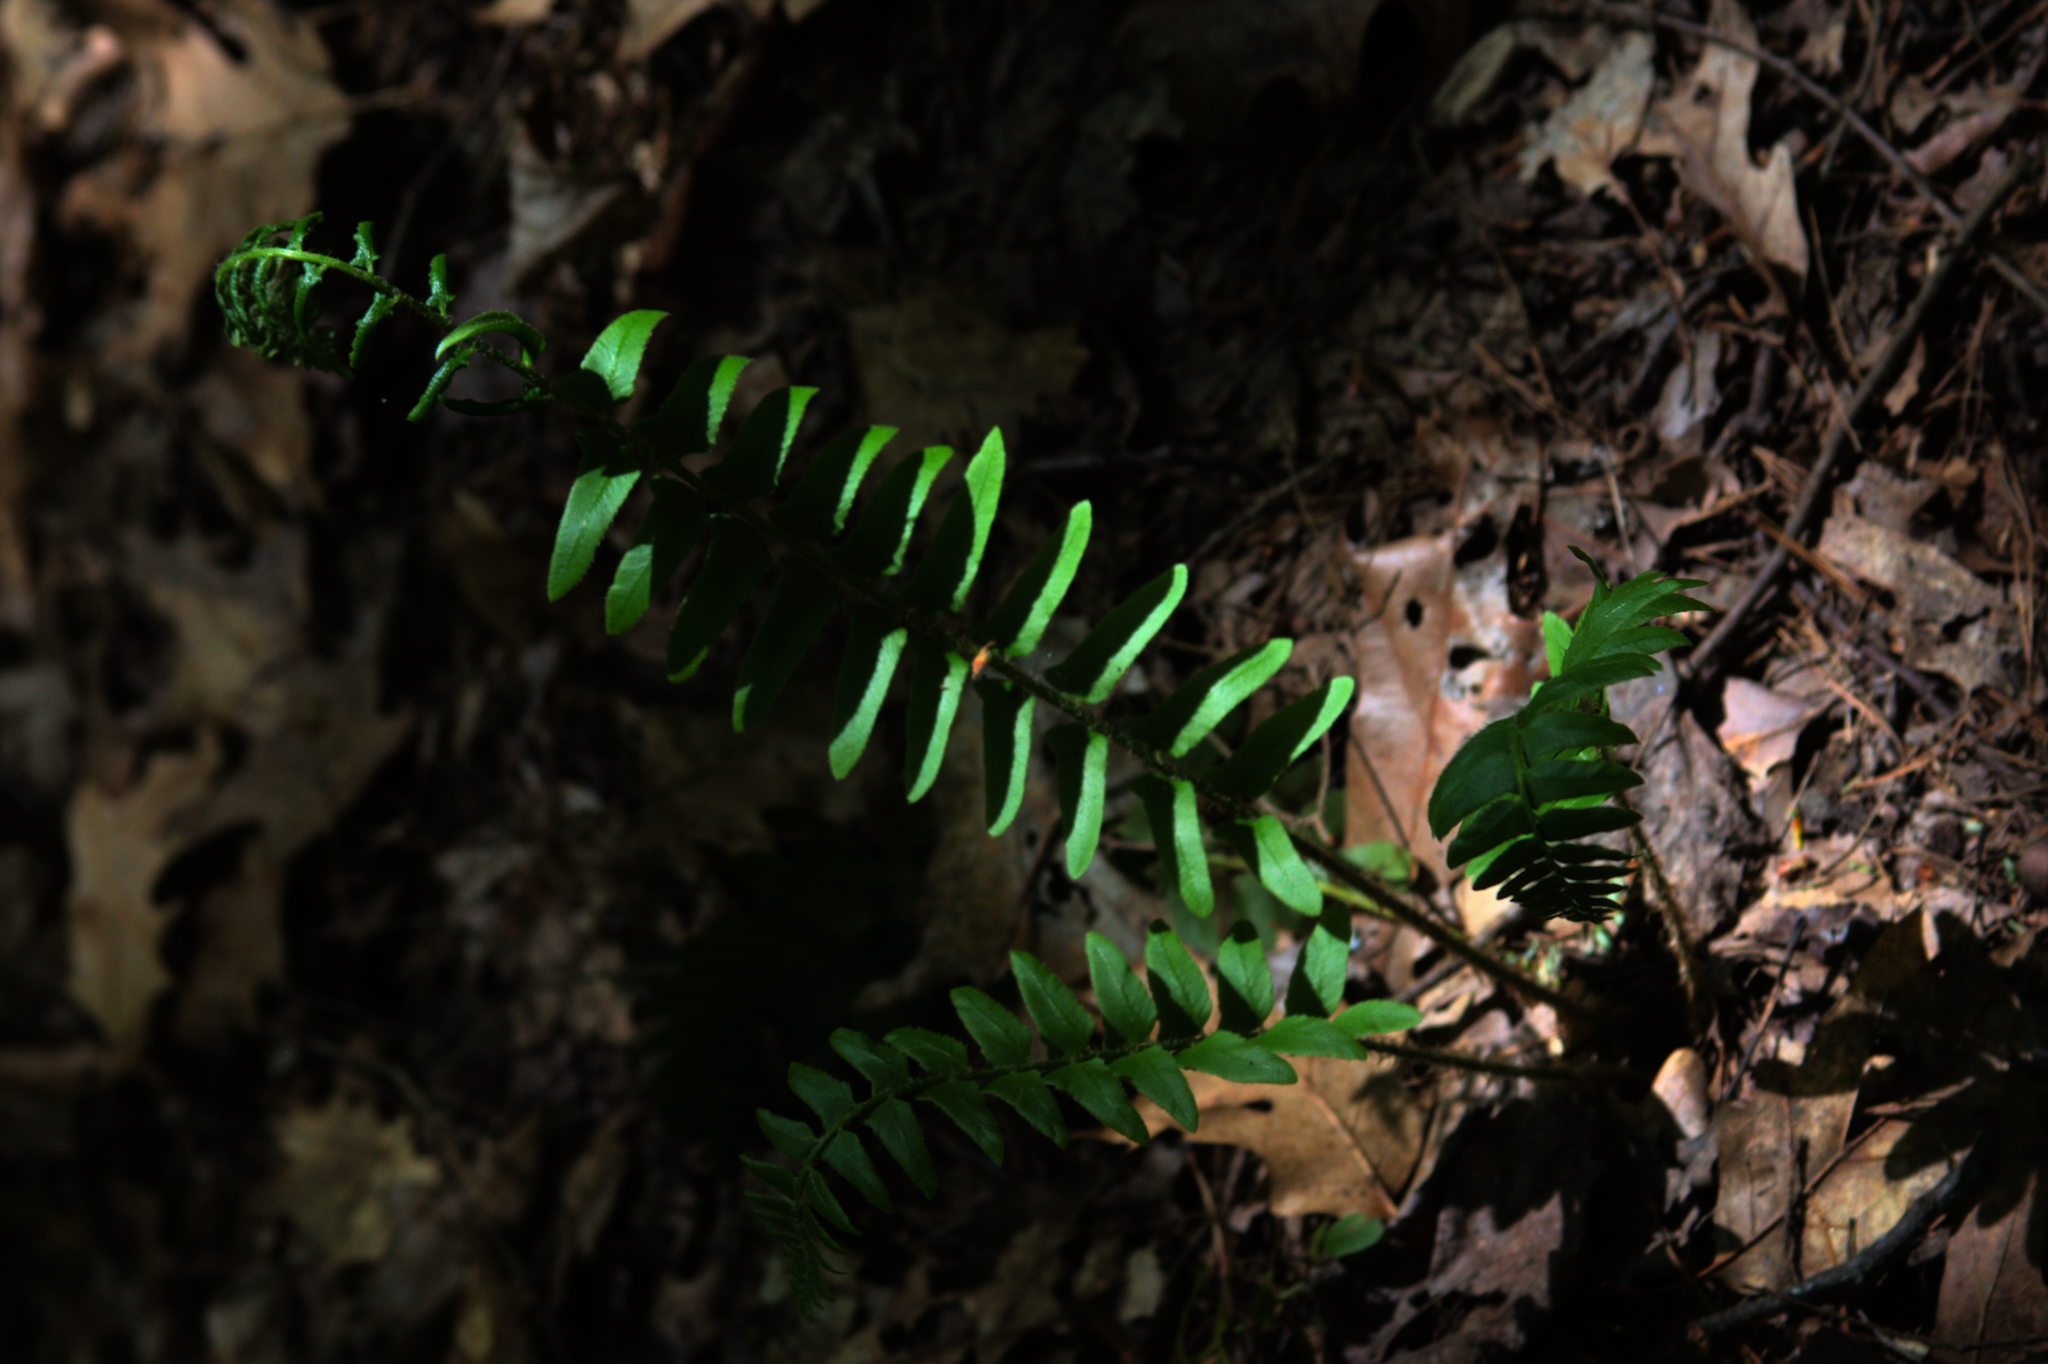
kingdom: Plantae
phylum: Tracheophyta
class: Polypodiopsida
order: Polypodiales
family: Dryopteridaceae
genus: Polystichum
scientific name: Polystichum acrostichoides
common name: Christmas fern
